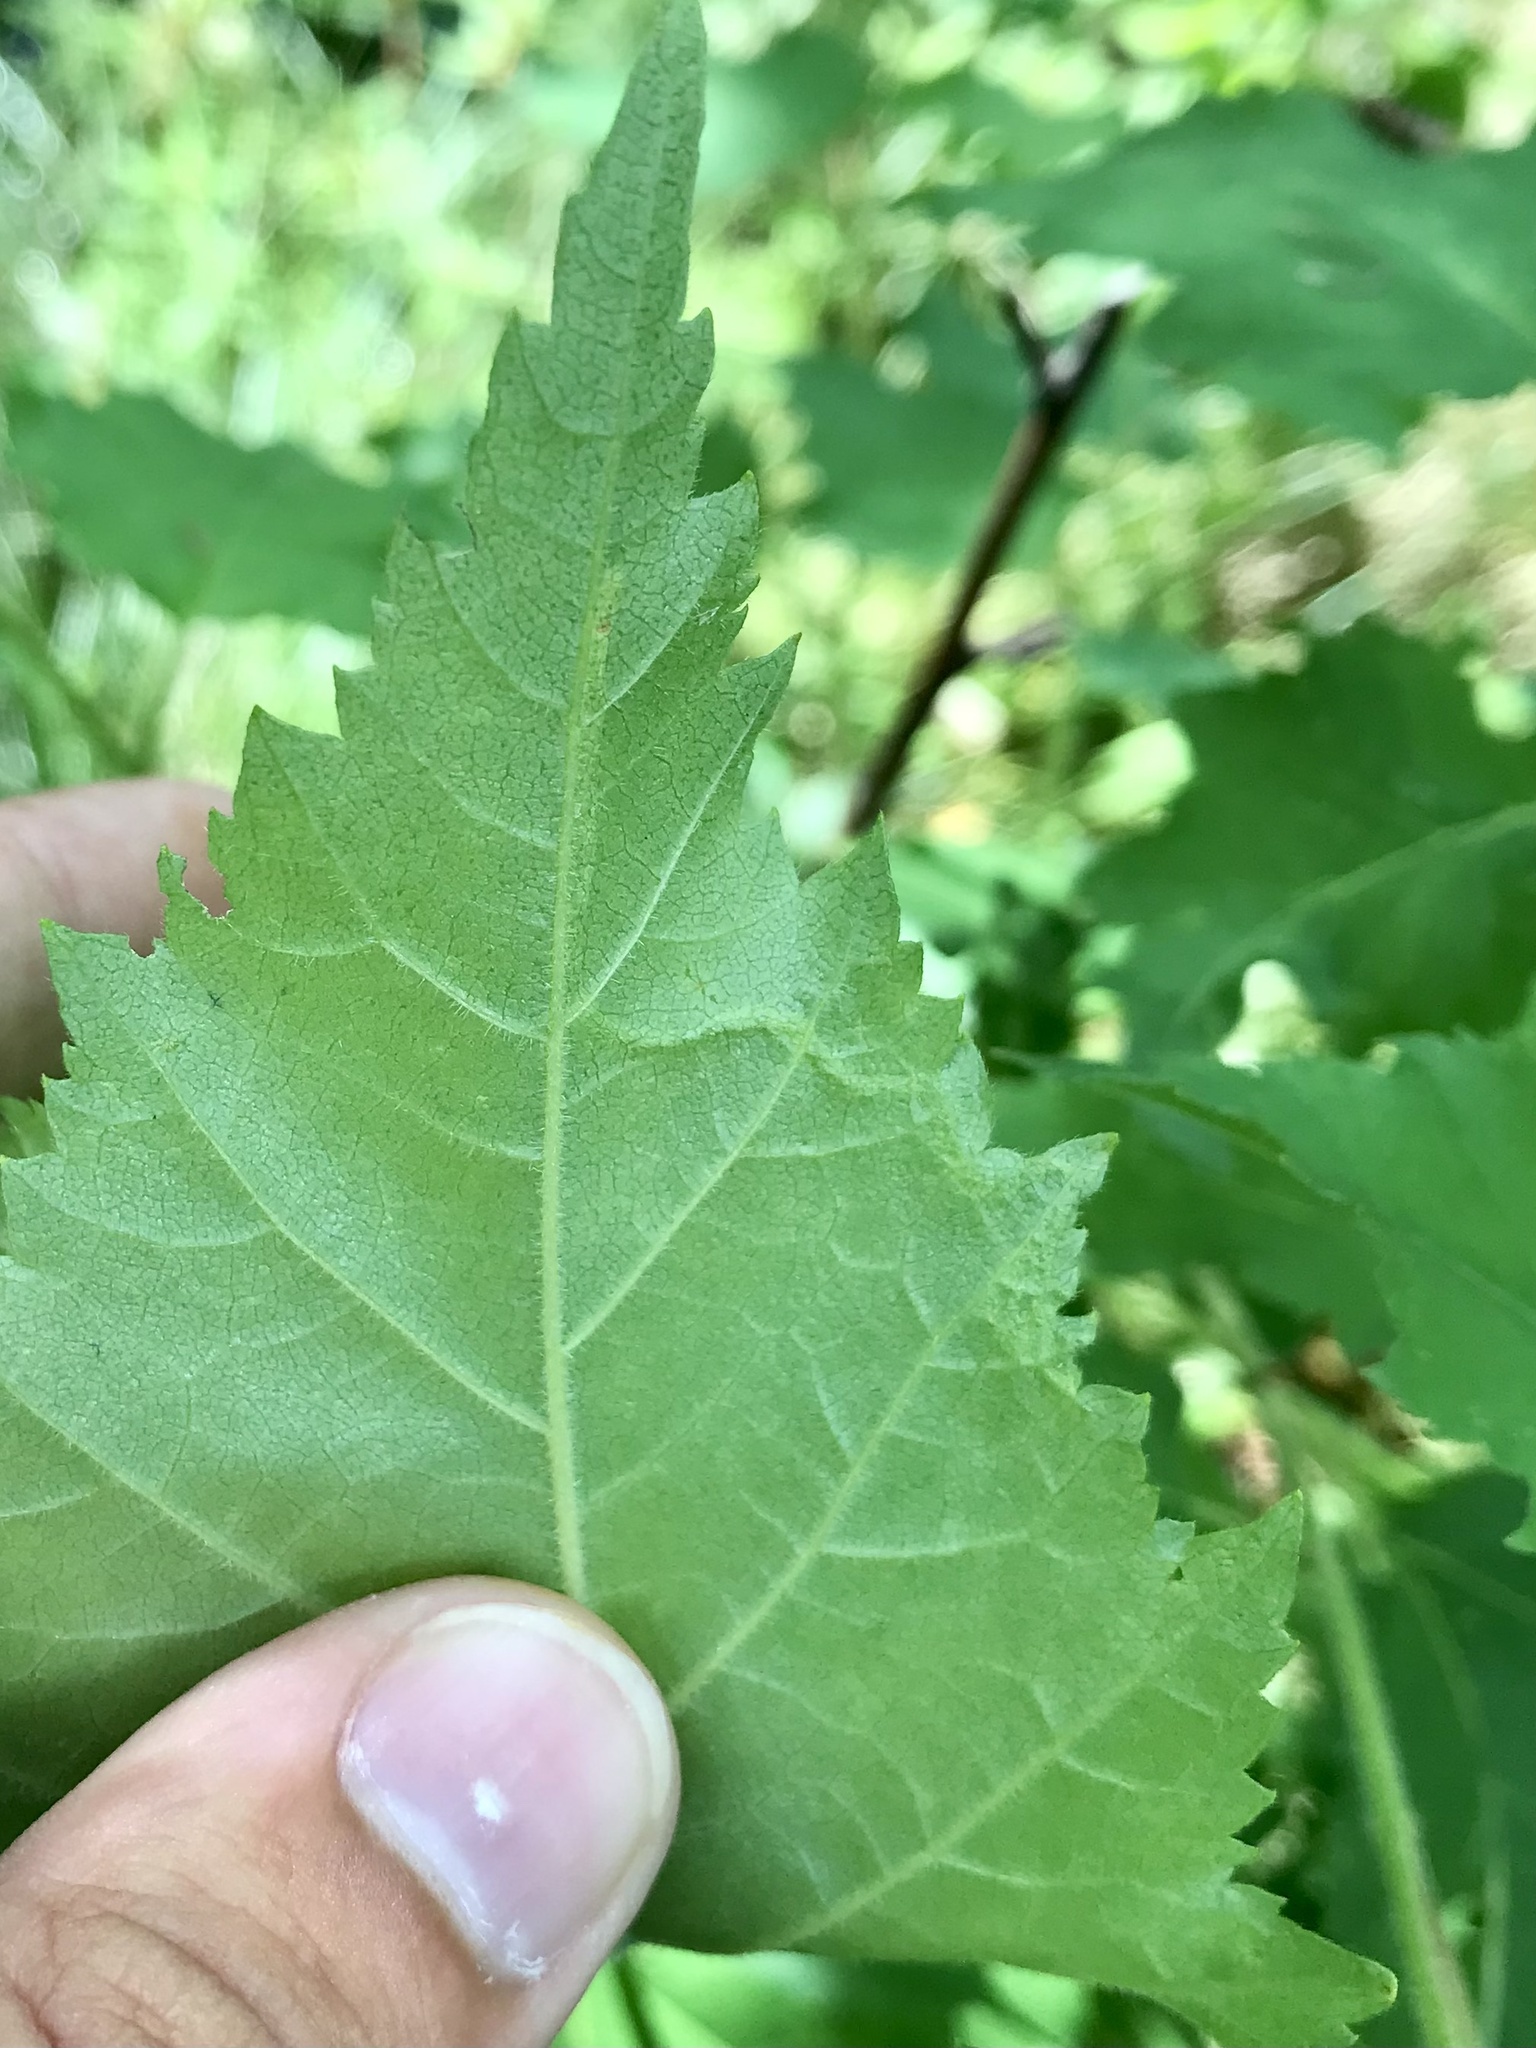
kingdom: Animalia
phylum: Arthropoda
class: Insecta
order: Diptera
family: Agromyzidae
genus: Agromyza
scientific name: Agromyza alnibetulae
